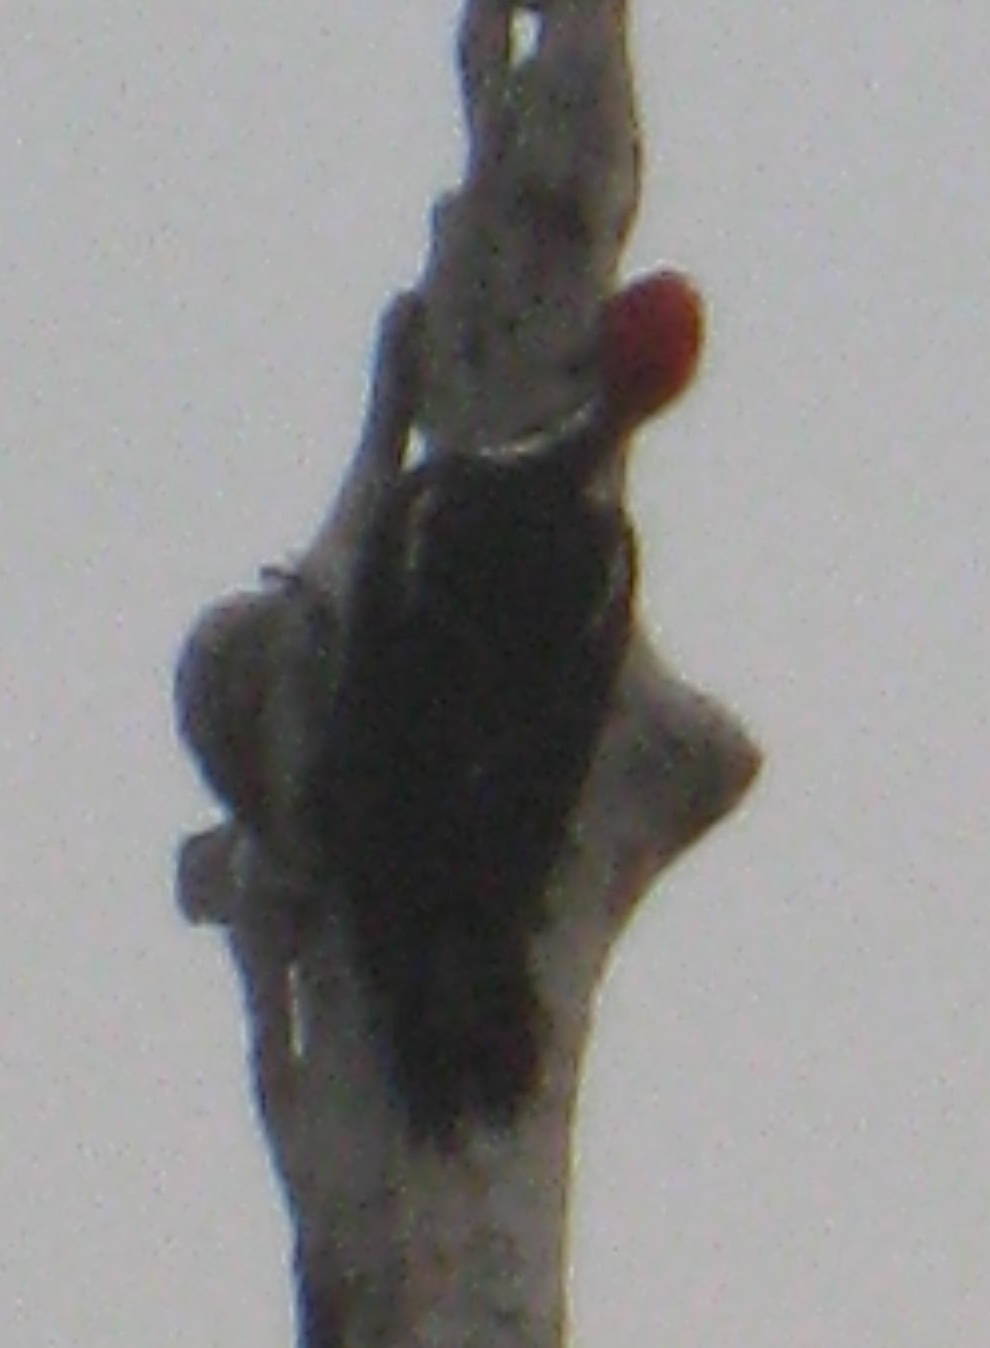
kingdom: Animalia
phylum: Chordata
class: Aves
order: Piciformes
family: Picidae
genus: Dryocopus
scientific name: Dryocopus lineatus
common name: Lineated woodpecker
